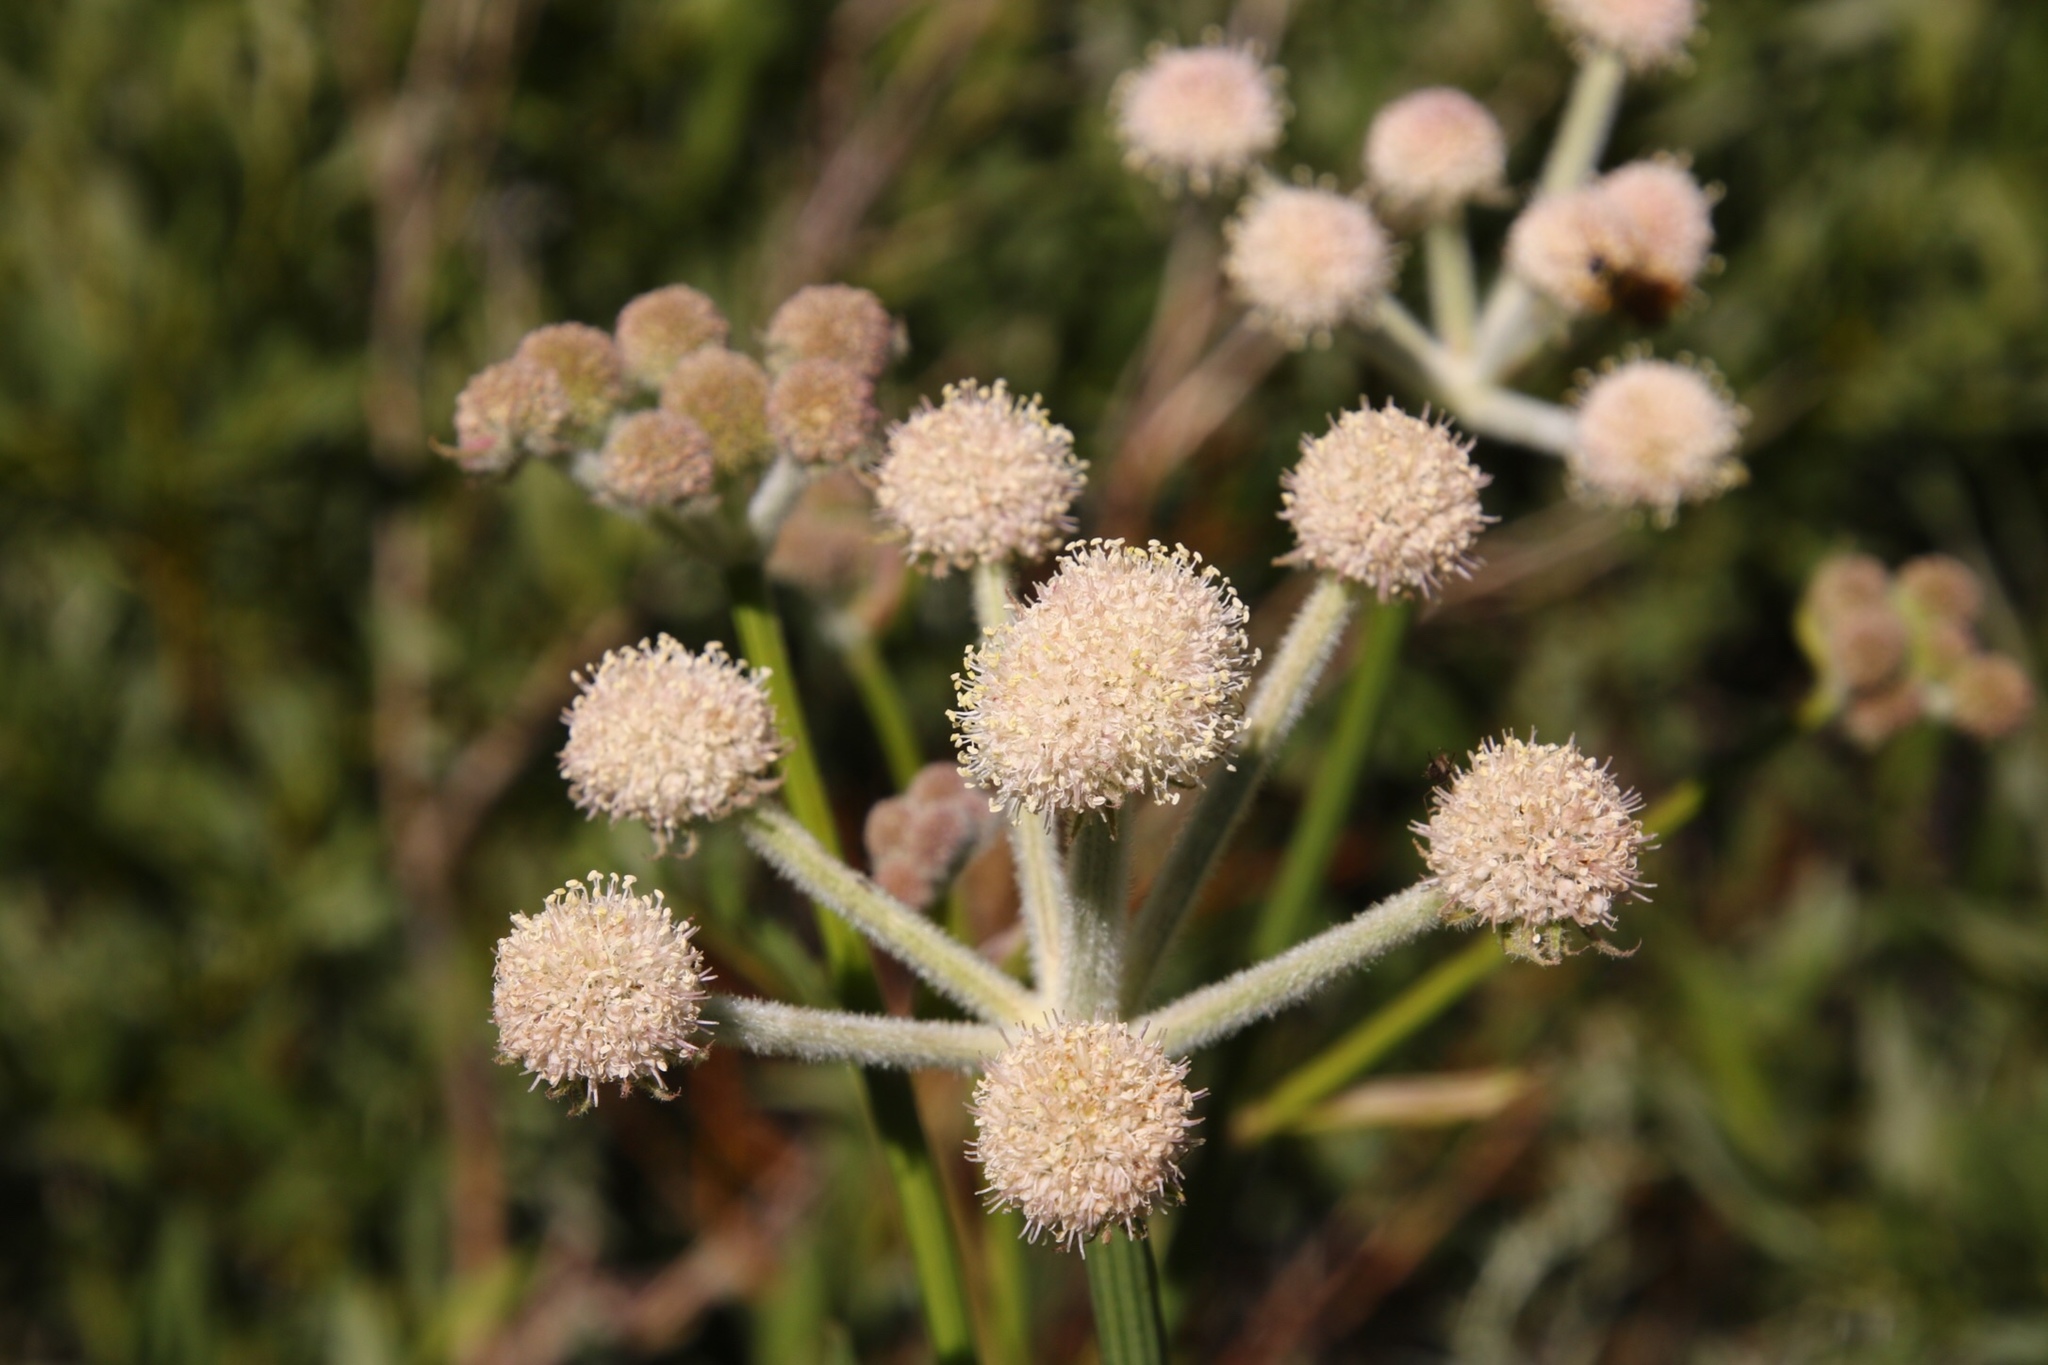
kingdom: Plantae
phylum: Tracheophyta
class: Magnoliopsida
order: Apiales
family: Apiaceae
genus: Angelica
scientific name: Angelica capitellata
